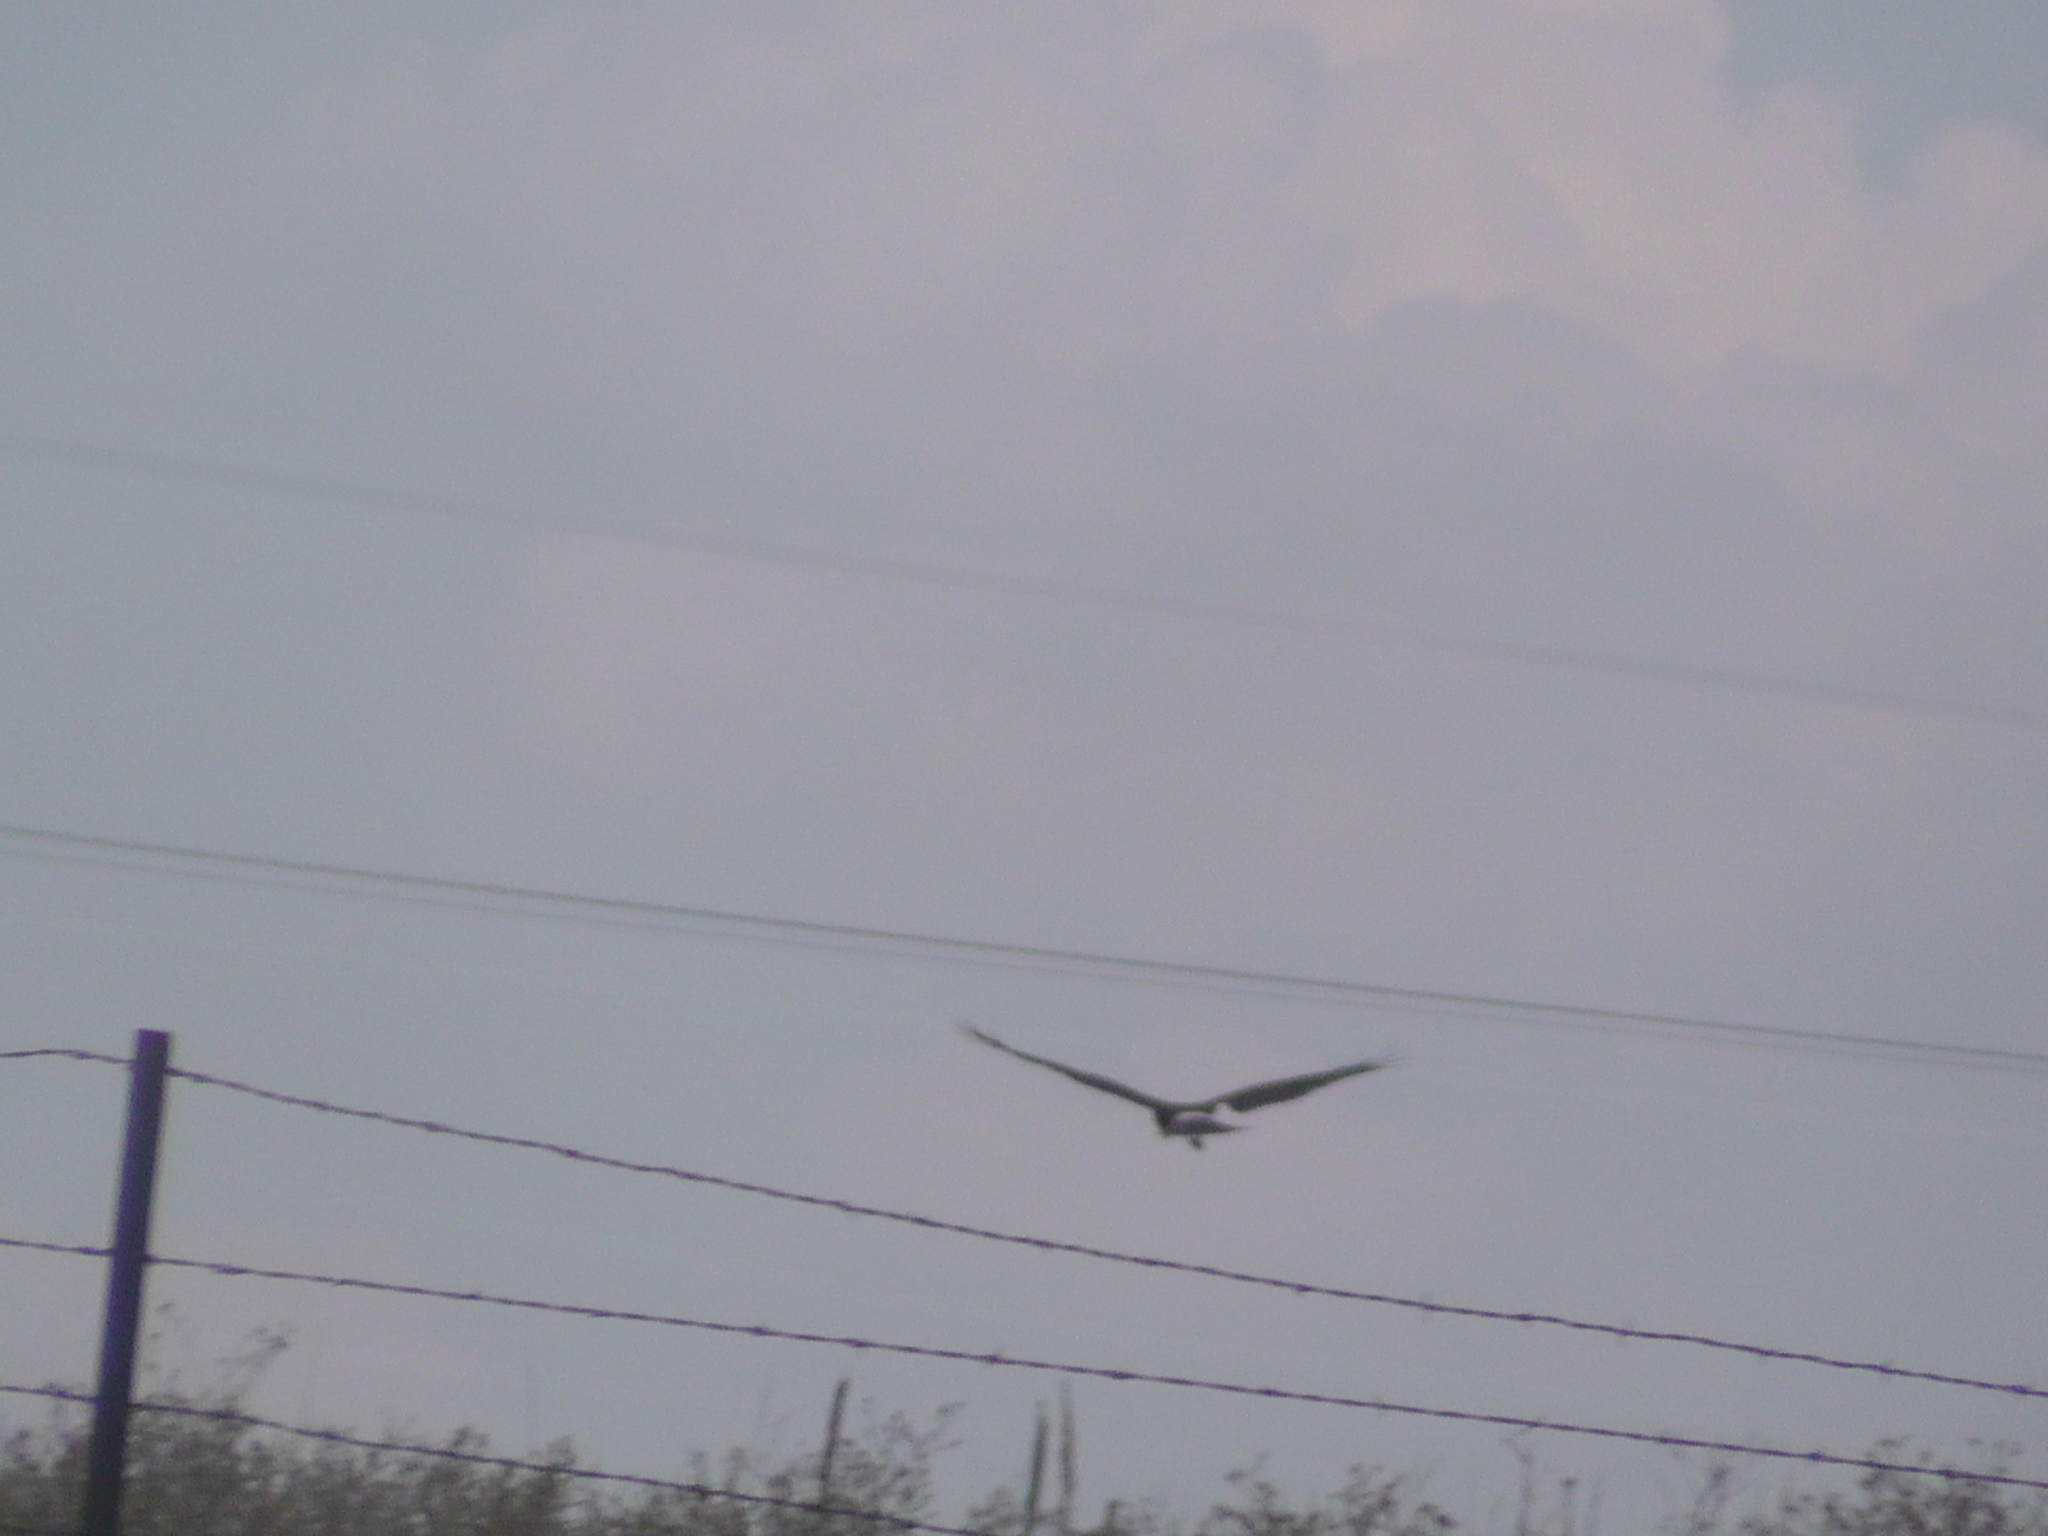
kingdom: Animalia
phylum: Chordata
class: Aves
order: Accipitriformes
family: Accipitridae
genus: Circus
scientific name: Circus cyaneus
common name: Hen harrier
